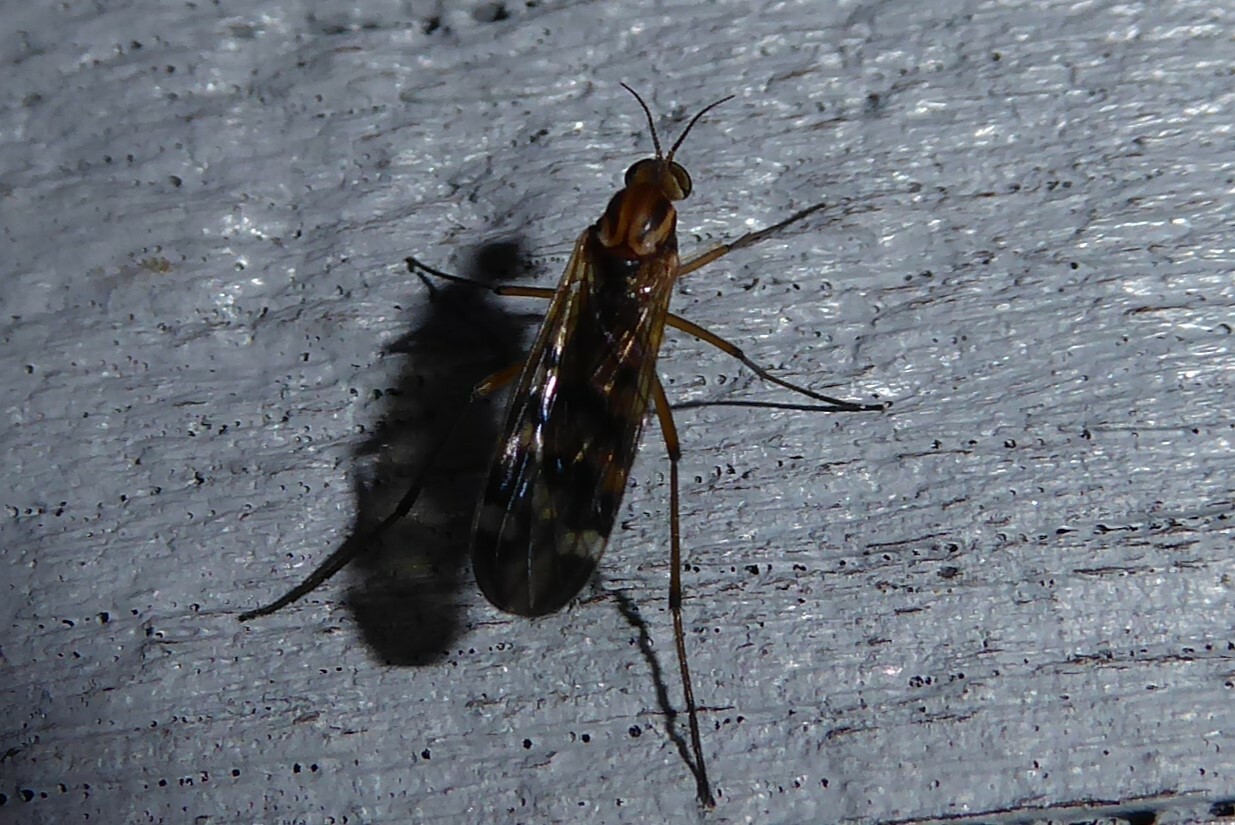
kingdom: Animalia
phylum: Arthropoda
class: Insecta
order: Diptera
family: Anisopodidae
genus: Sylvicola
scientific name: Sylvicola notatus
